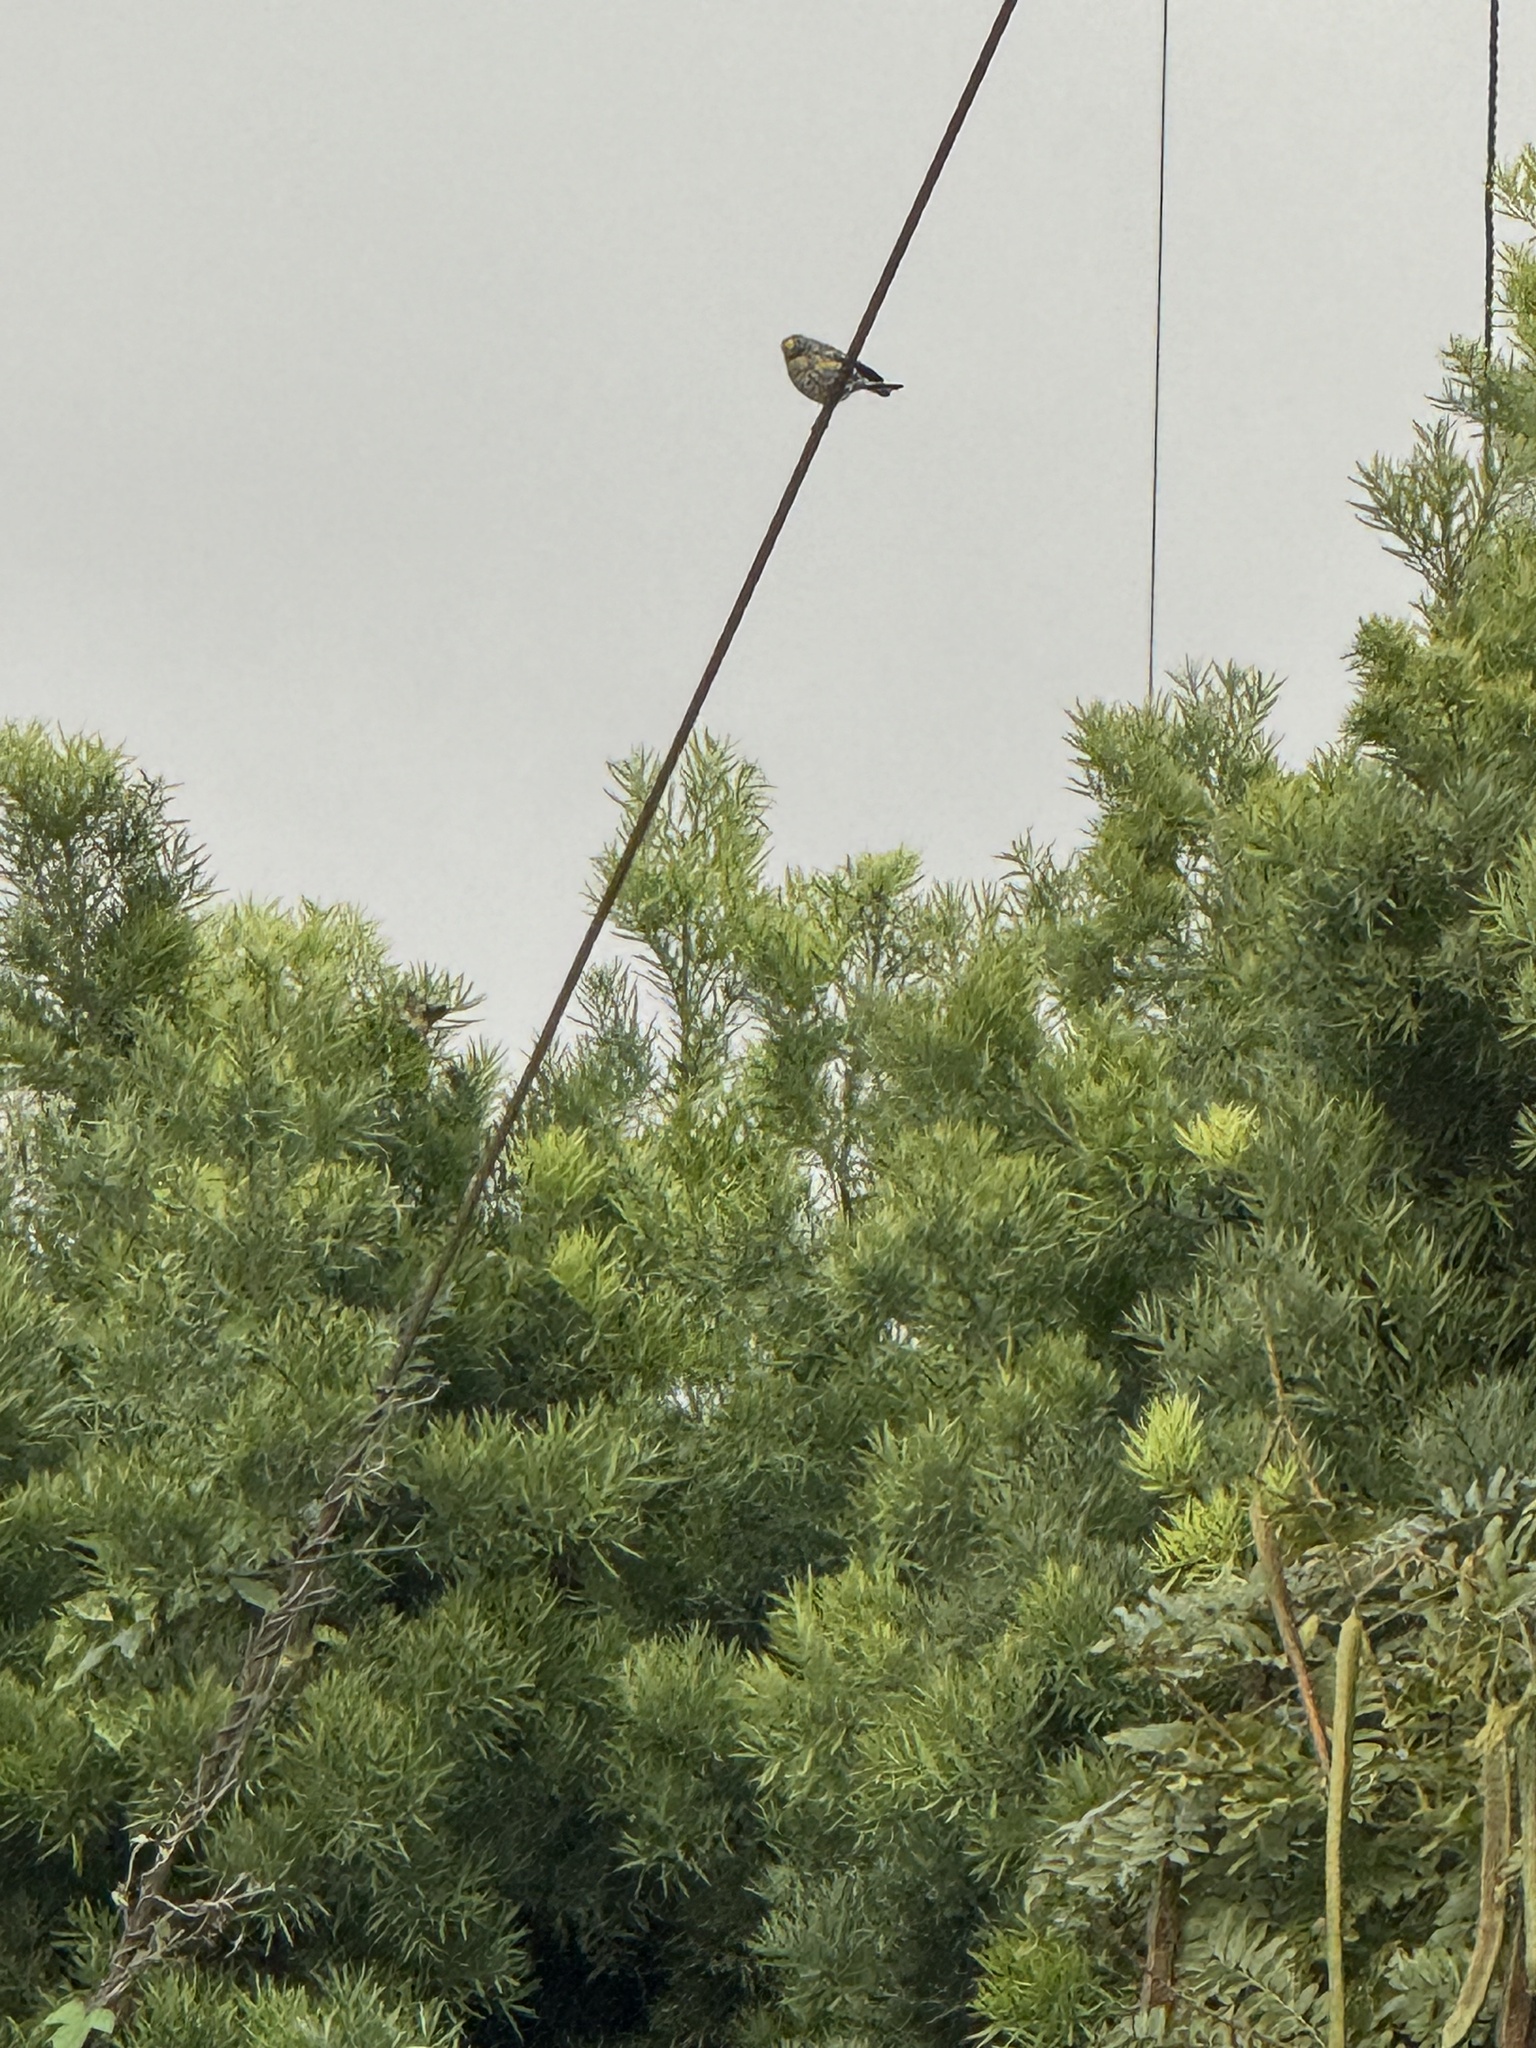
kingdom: Animalia
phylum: Chordata
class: Aves
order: Passeriformes
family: Parulidae
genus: Setophaga
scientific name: Setophaga coronata
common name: Myrtle warbler
